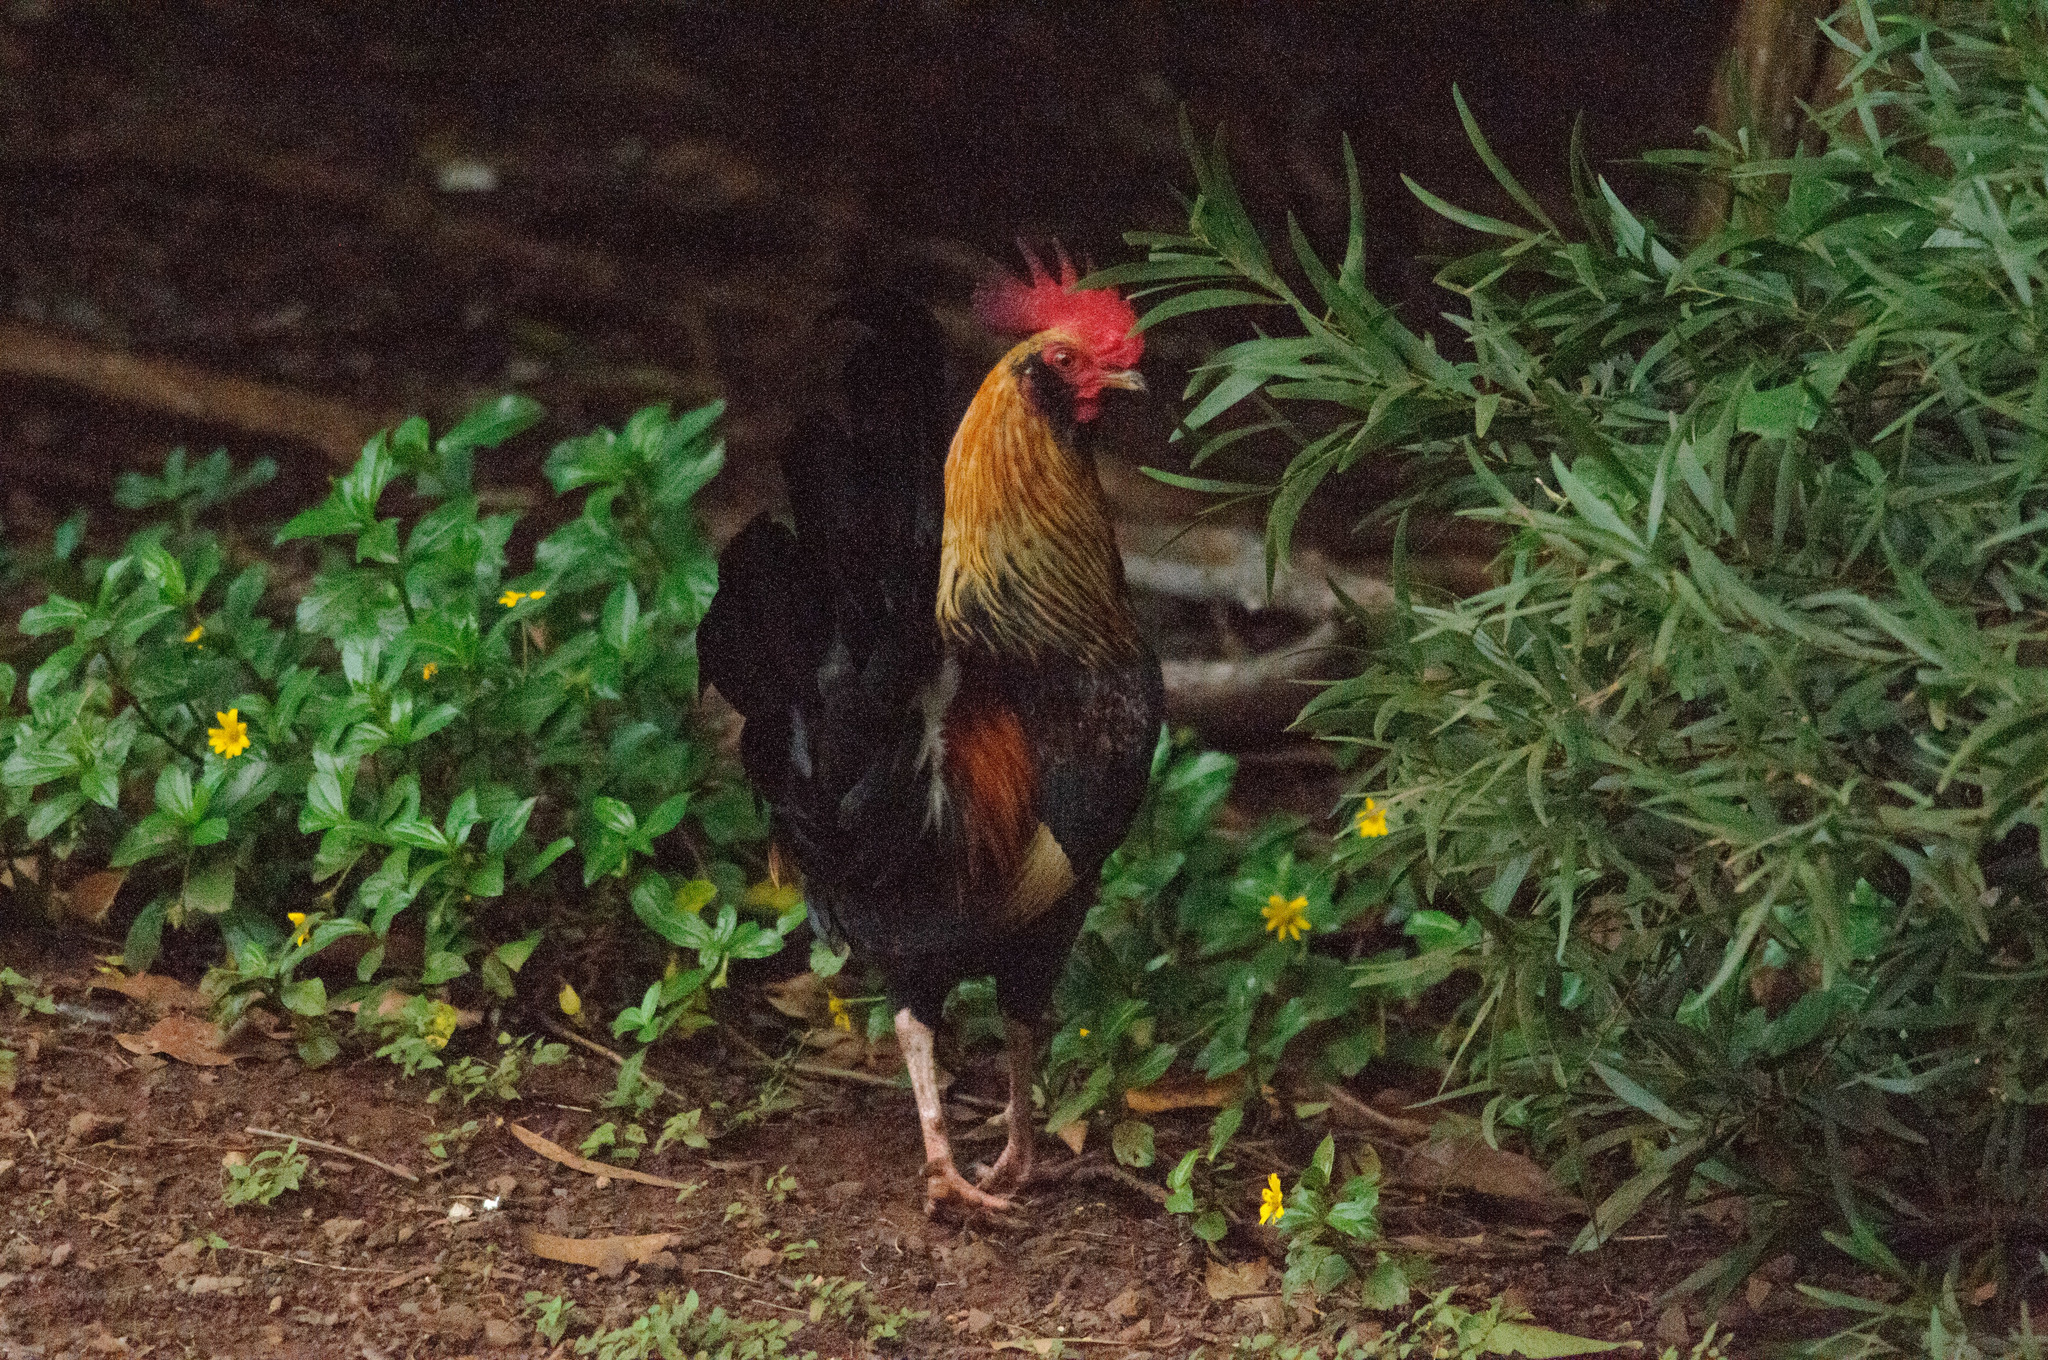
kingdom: Animalia
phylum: Chordata
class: Aves
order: Galliformes
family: Phasianidae
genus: Gallus
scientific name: Gallus gallus
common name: Red junglefowl
